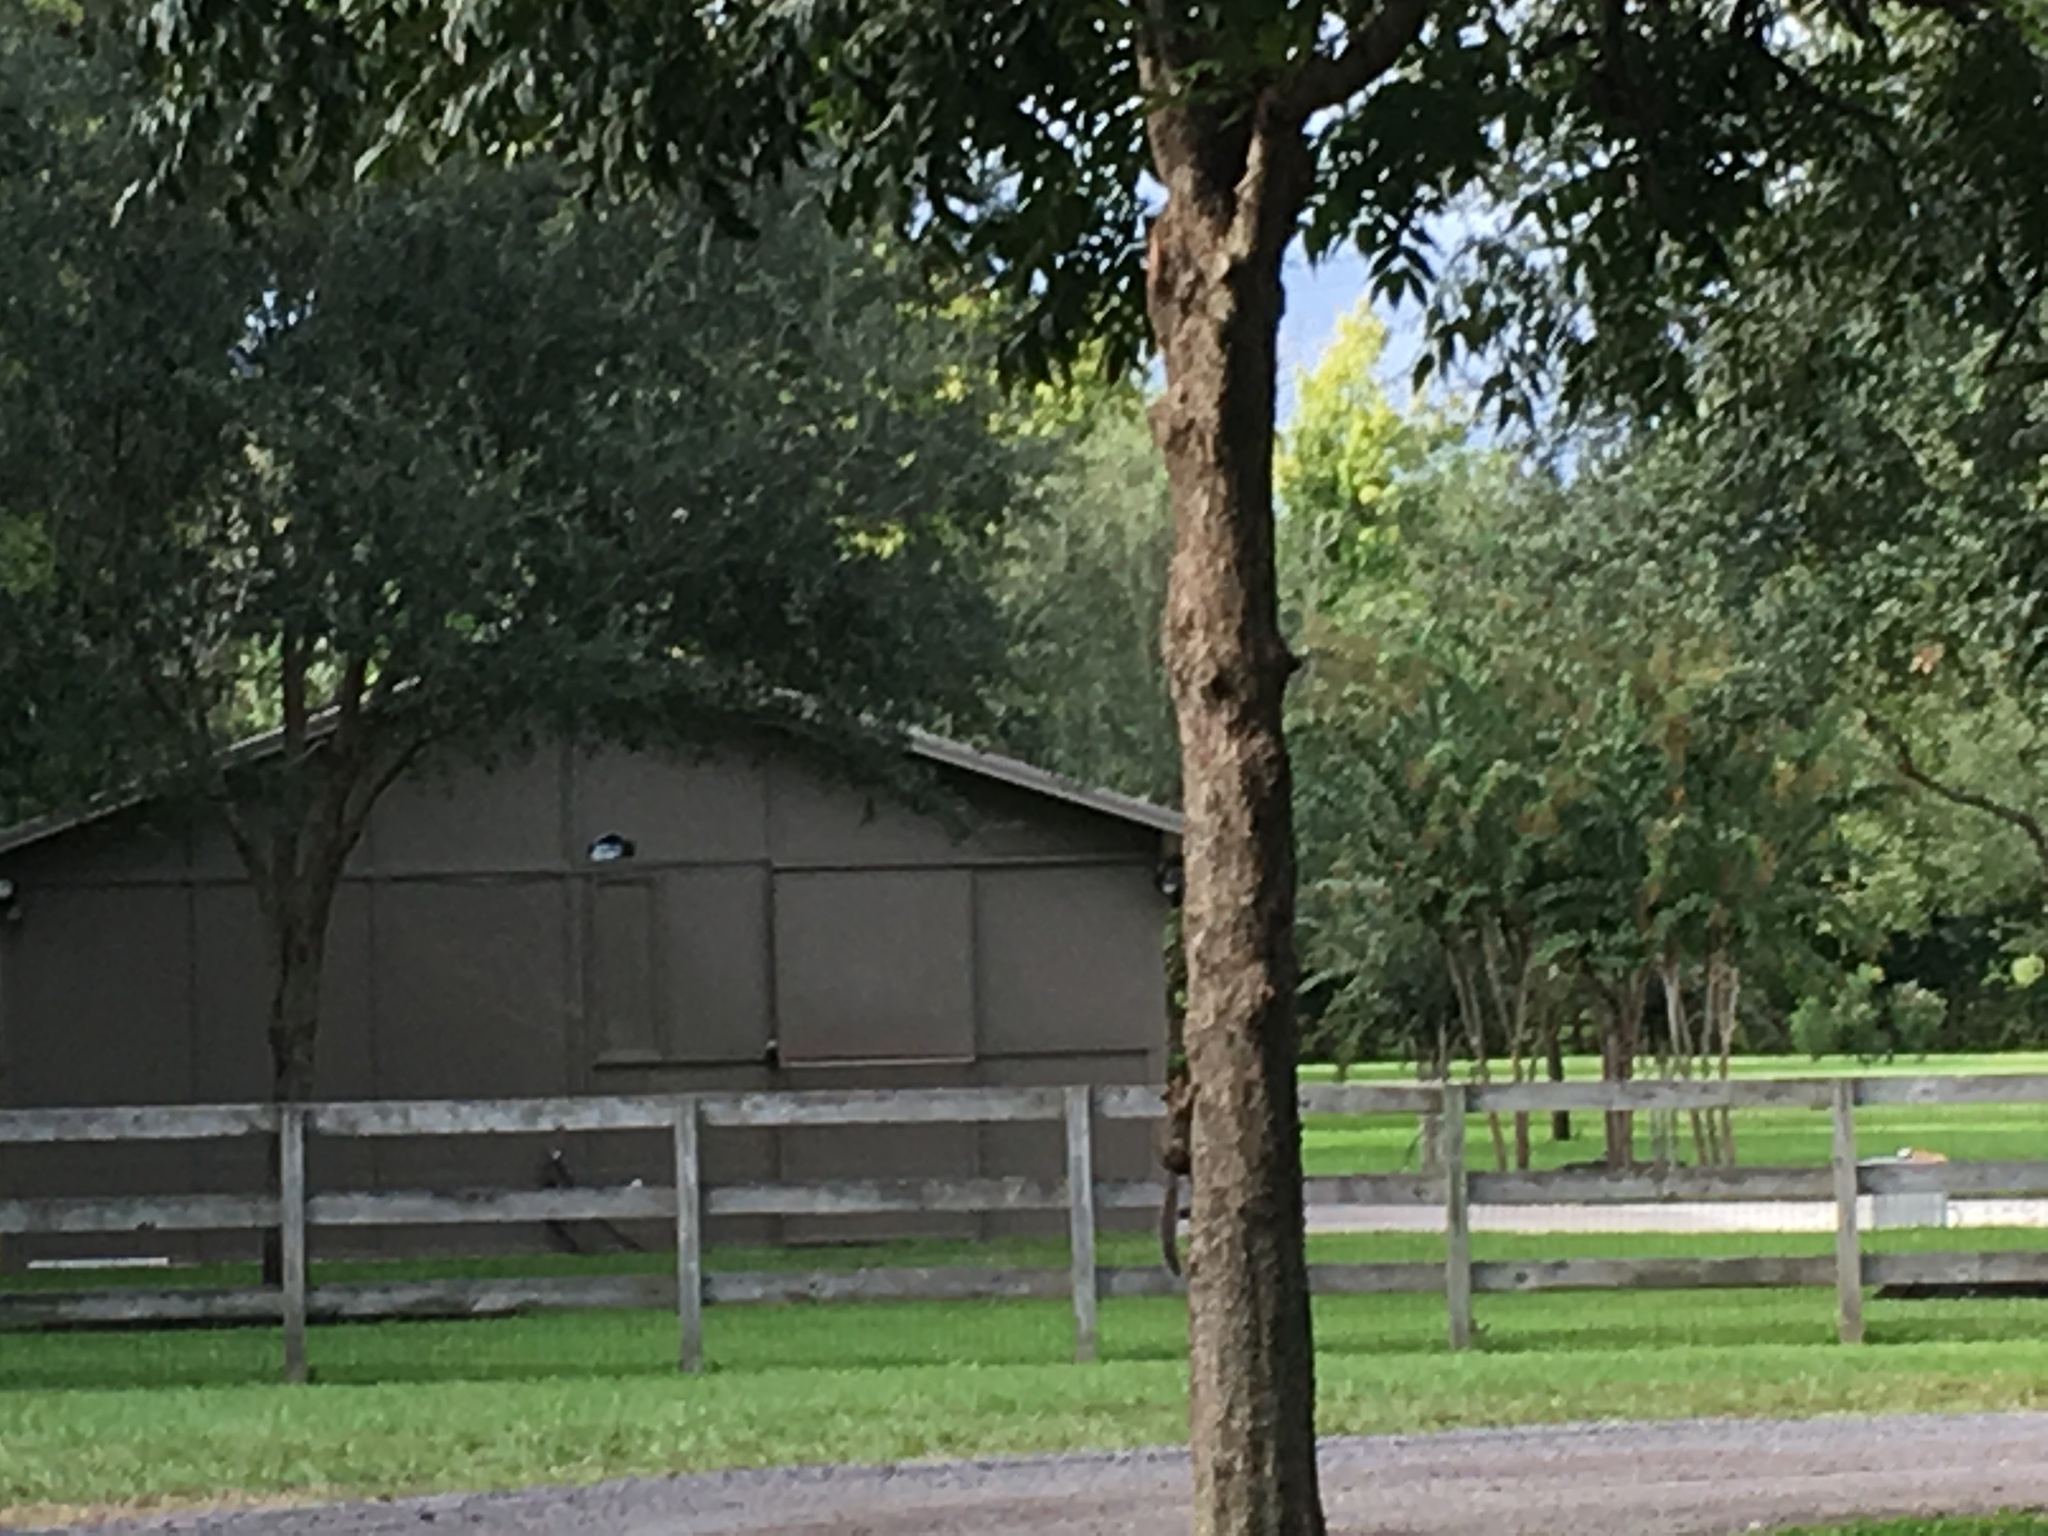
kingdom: Animalia
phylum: Chordata
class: Mammalia
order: Rodentia
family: Sciuridae
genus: Sciurus
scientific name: Sciurus niger
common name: Fox squirrel
